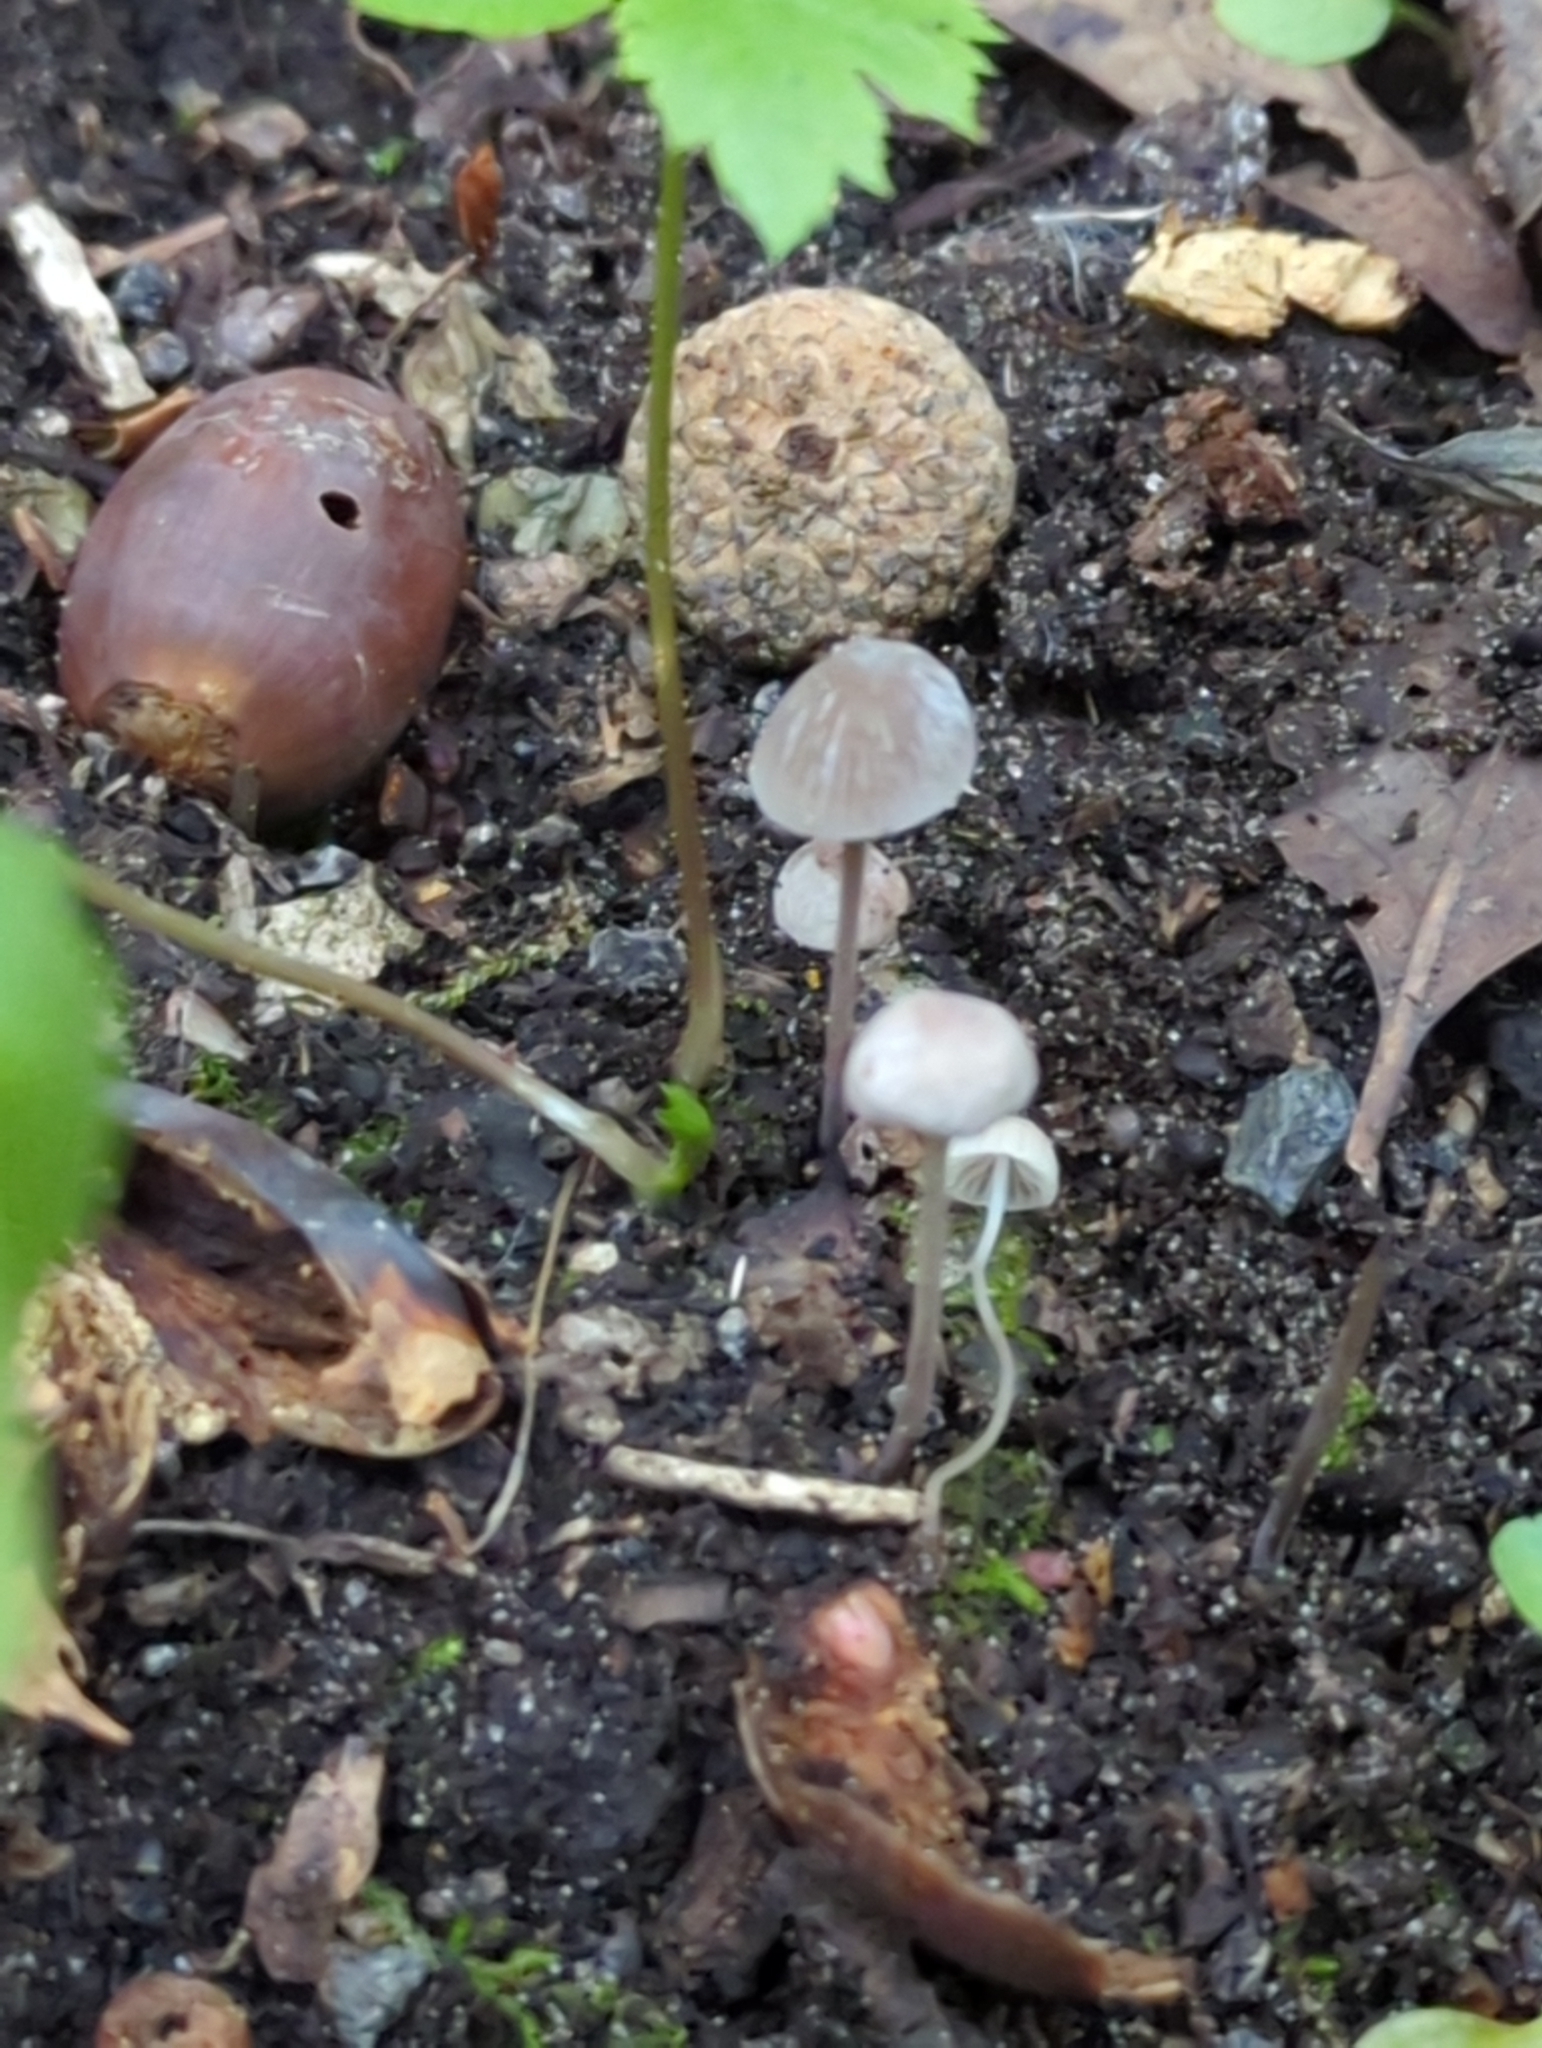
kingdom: Fungi
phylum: Basidiomycota
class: Agaricomycetes
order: Agaricales
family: Mycenaceae
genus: Mycena
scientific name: Mycena filopes
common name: Iodine bonnet
